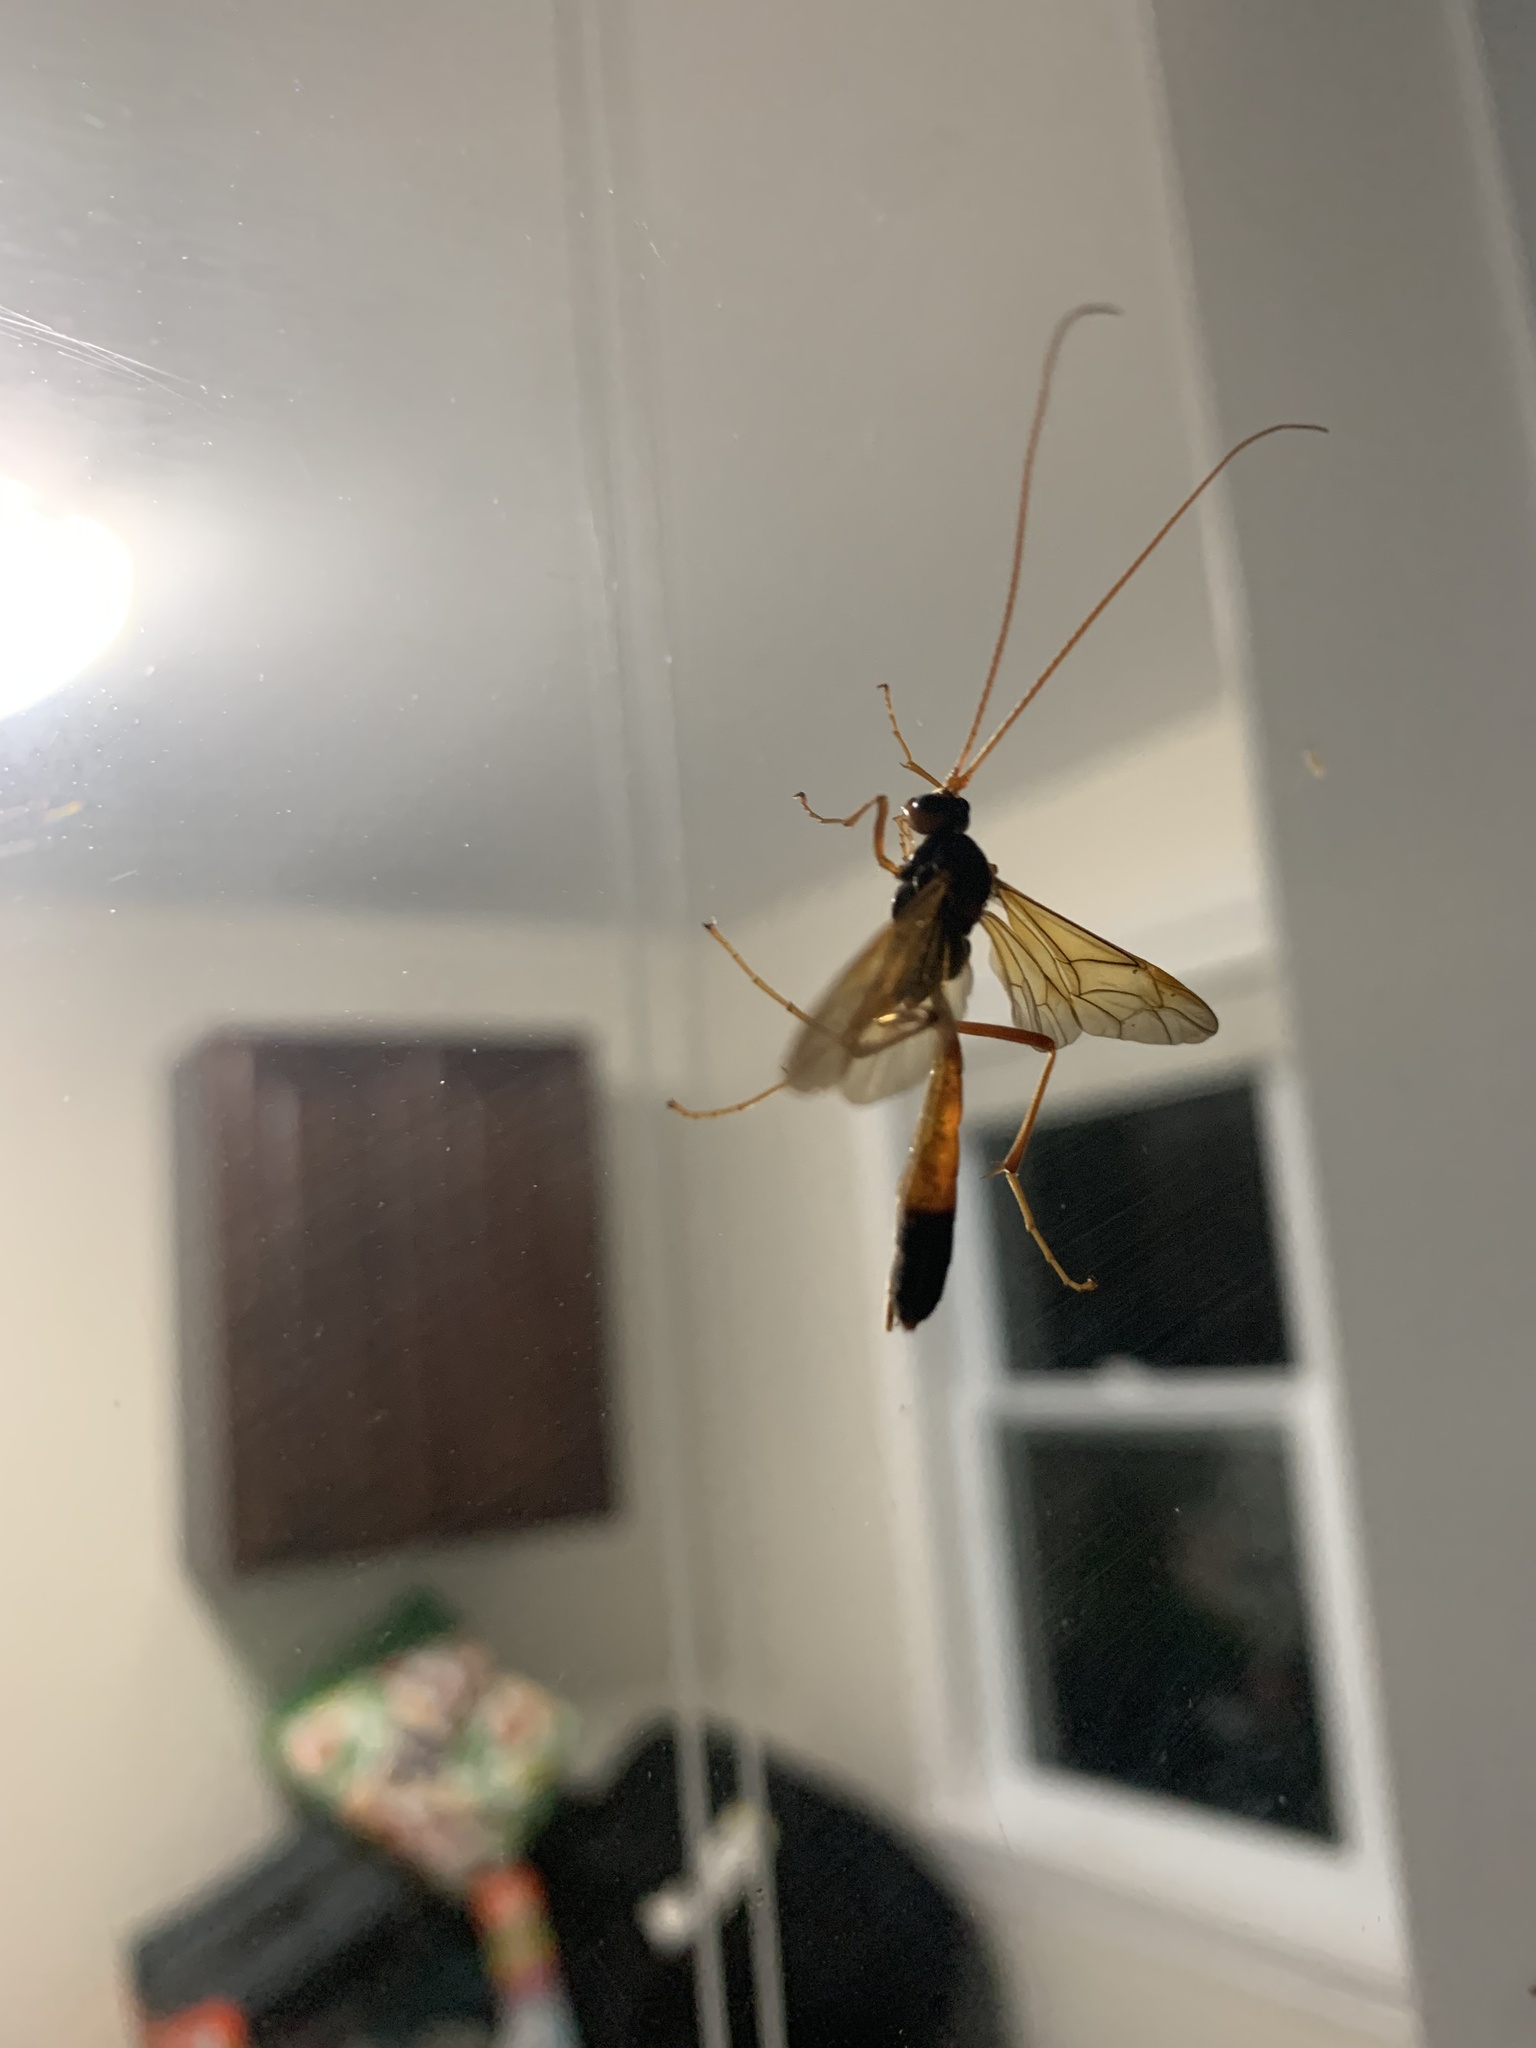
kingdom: Animalia
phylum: Arthropoda
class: Insecta
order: Hymenoptera
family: Ichneumonidae
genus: Opheltes
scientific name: Opheltes glaucopterus
